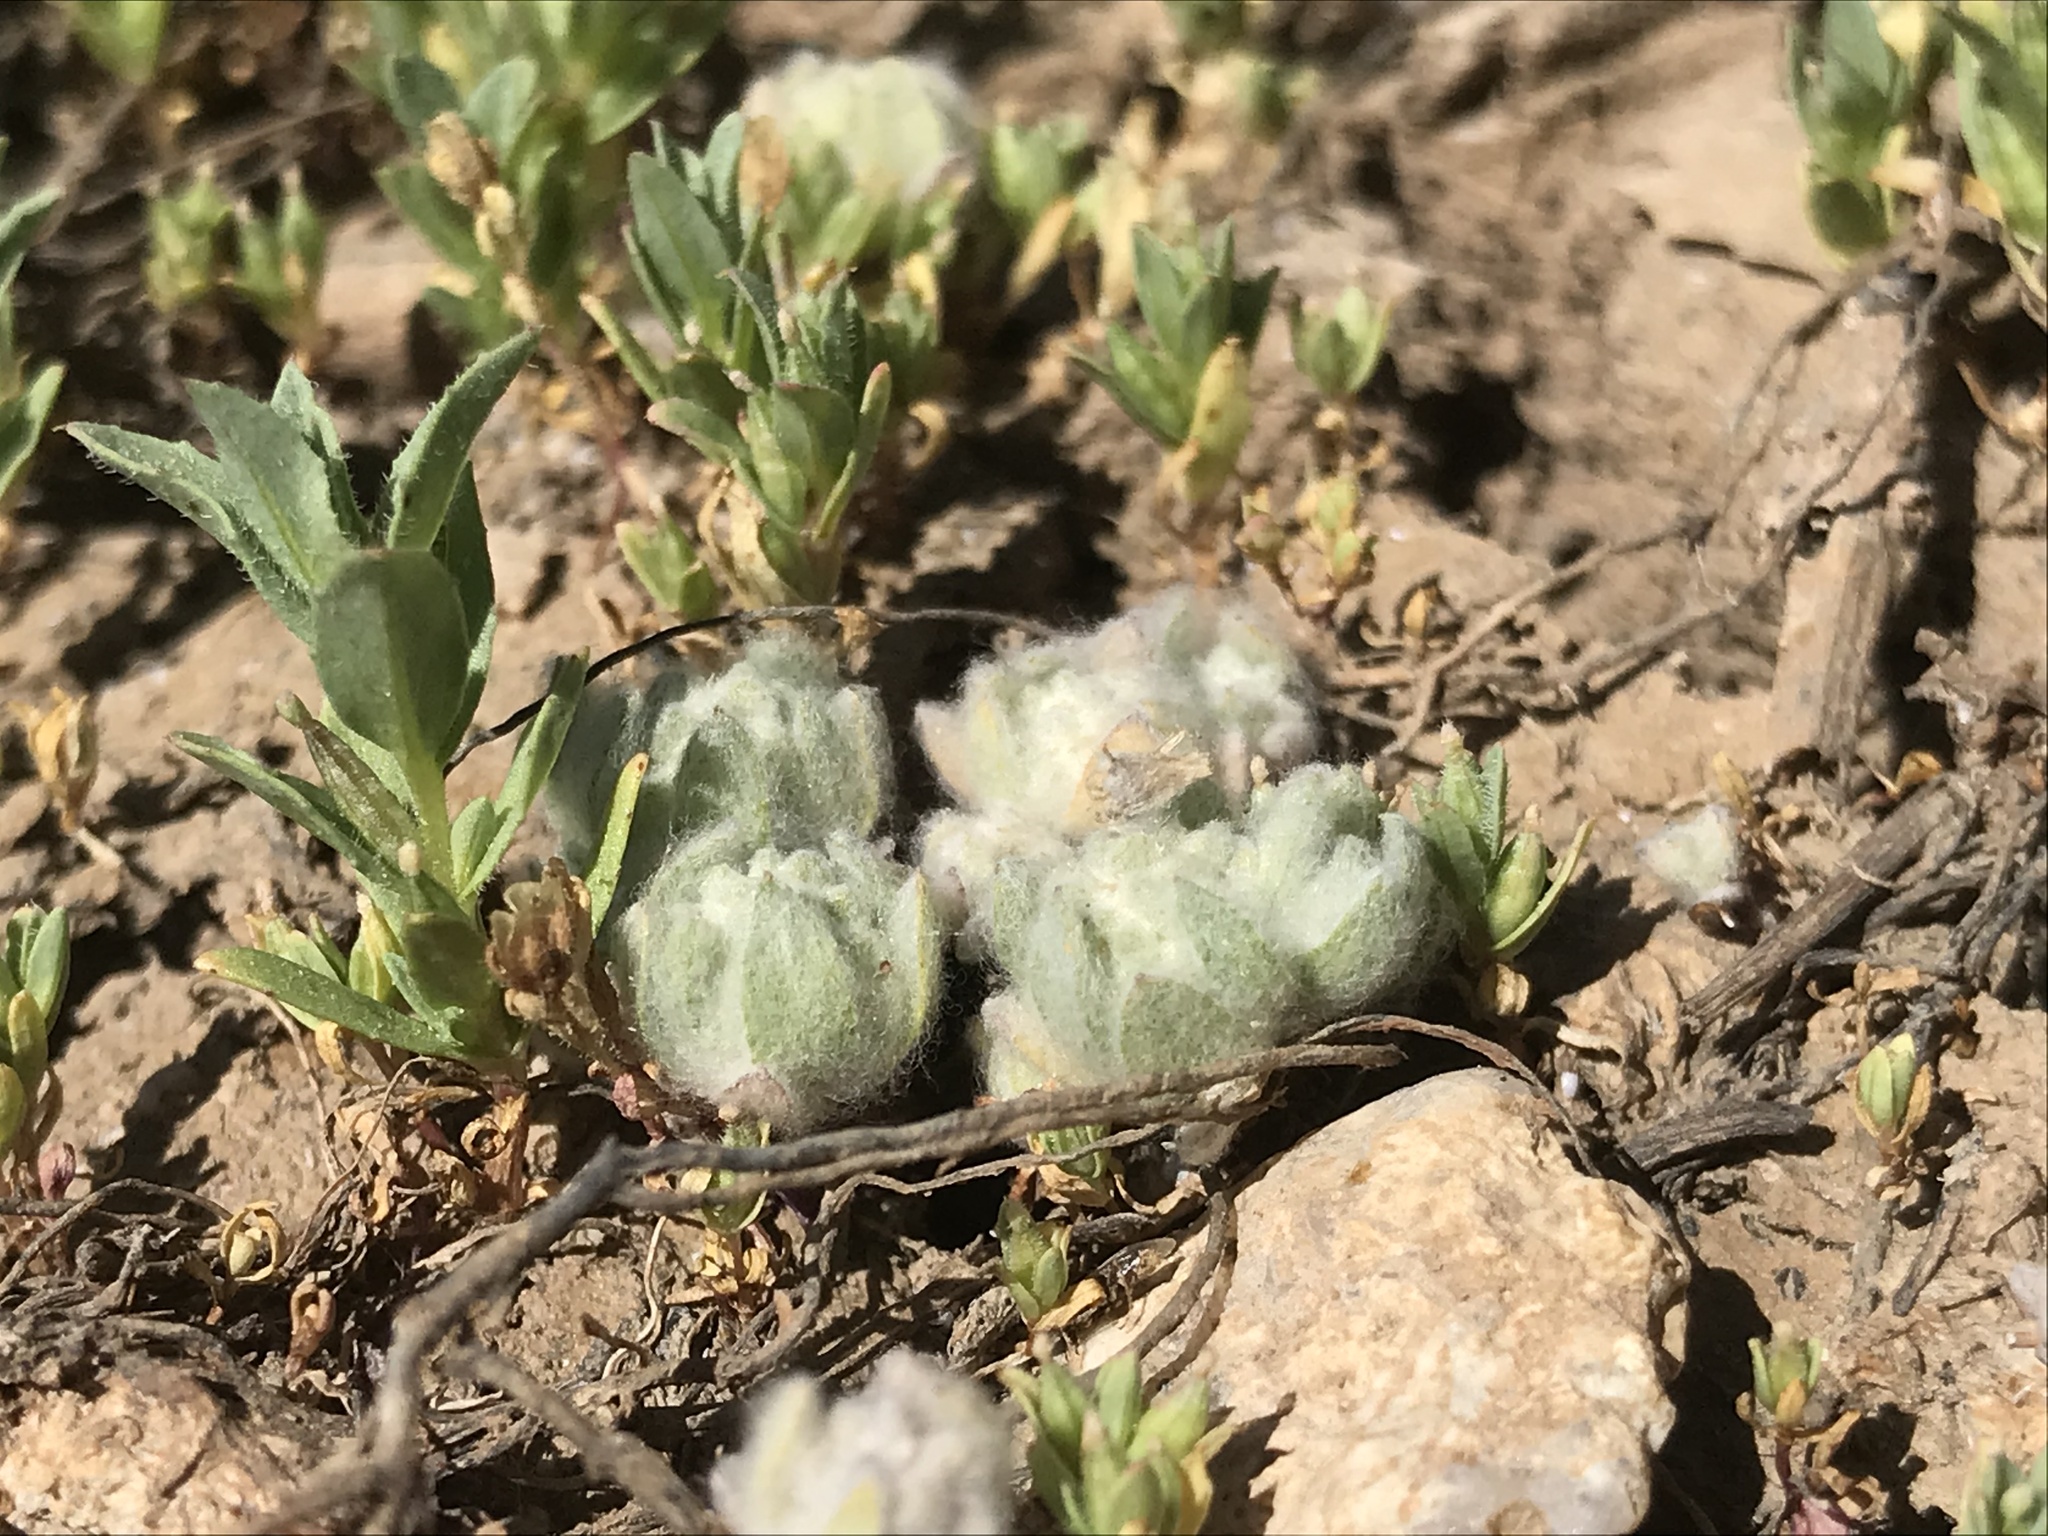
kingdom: Plantae
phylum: Tracheophyta
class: Magnoliopsida
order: Asterales
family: Asteraceae
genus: Psilocarphus
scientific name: Psilocarphus brevissimus
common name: Dwarf woollyheads
